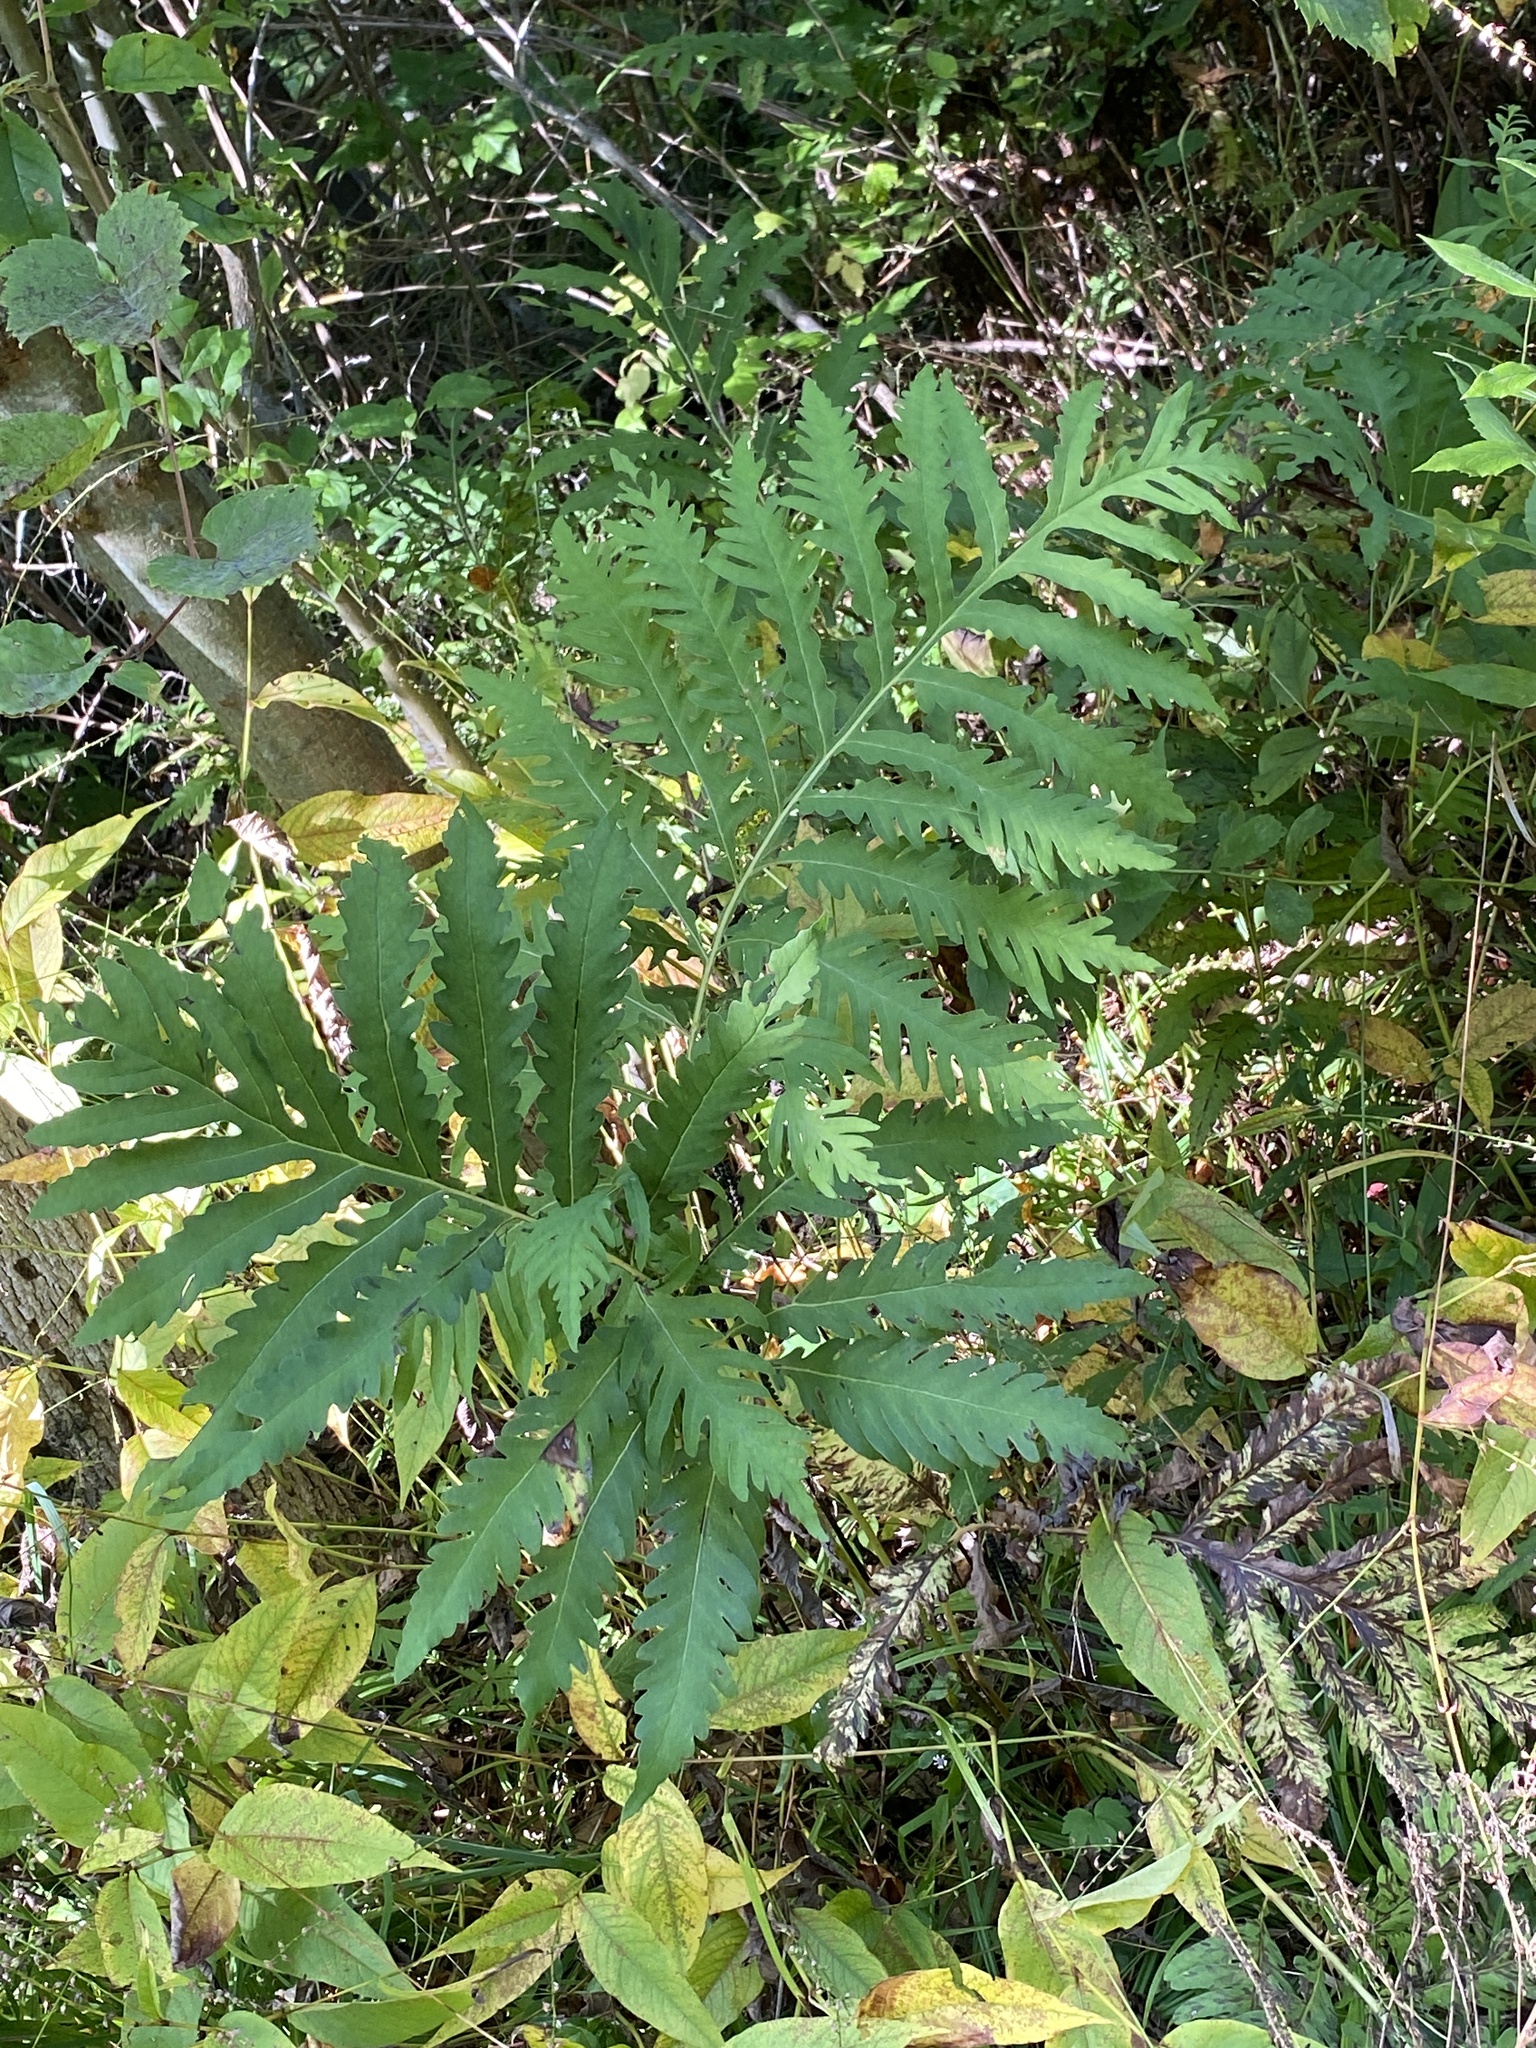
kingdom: Plantae
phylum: Tracheophyta
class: Polypodiopsida
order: Polypodiales
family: Onocleaceae
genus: Onoclea
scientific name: Onoclea sensibilis
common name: Sensitive fern
